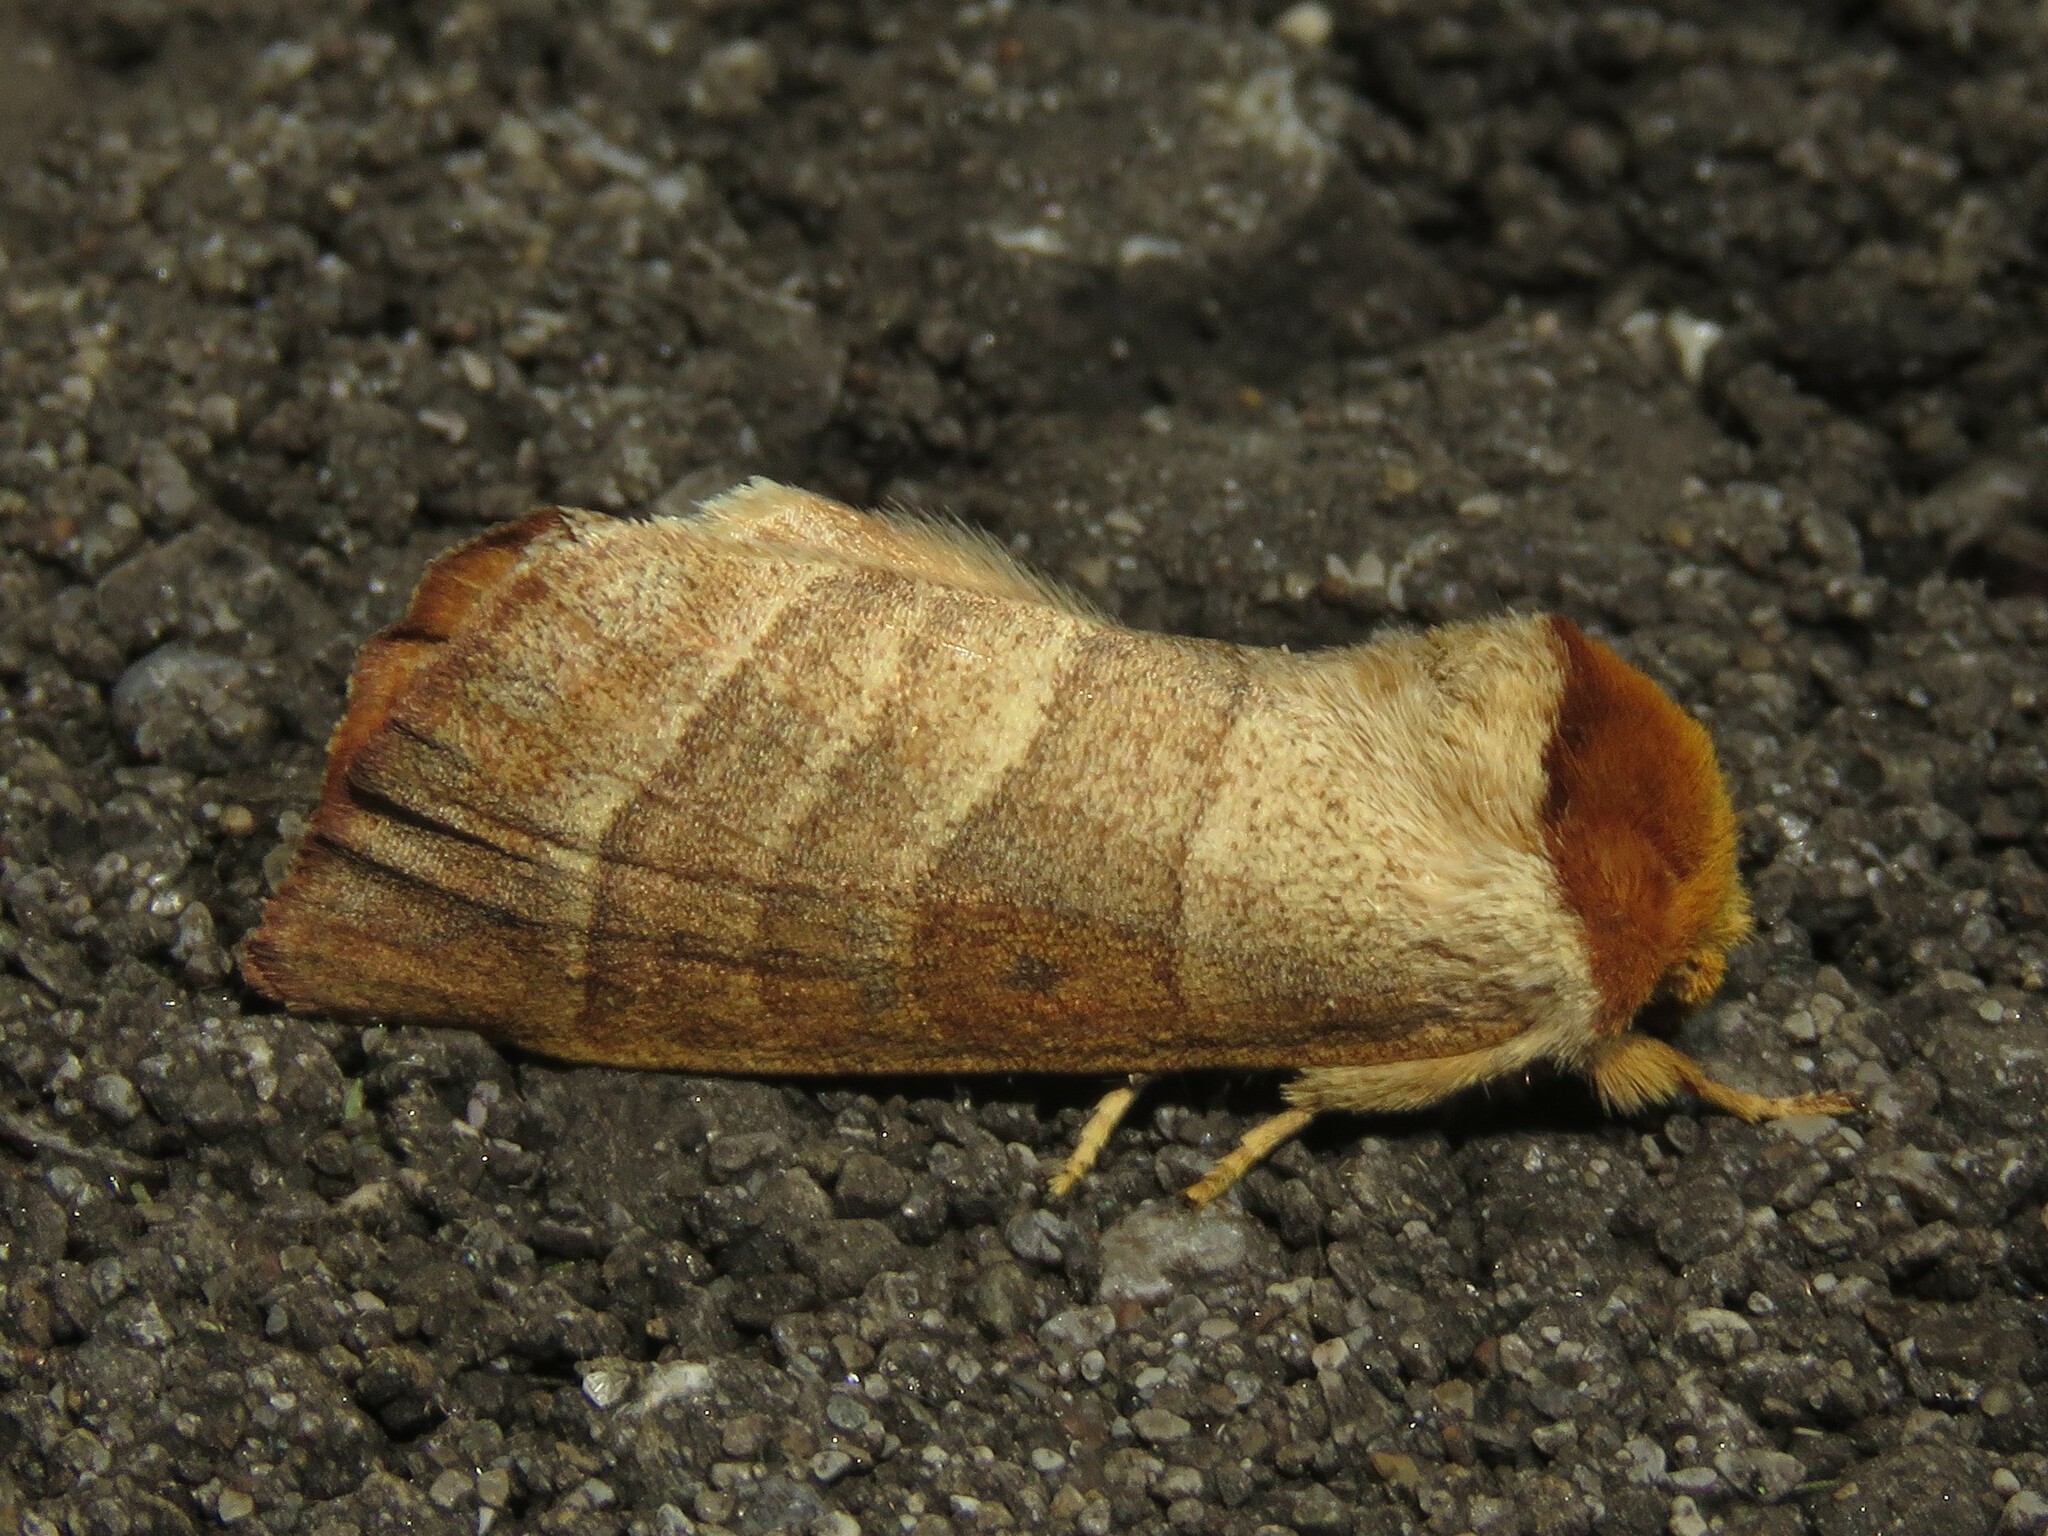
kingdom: Animalia
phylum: Arthropoda
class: Insecta
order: Lepidoptera
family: Notodontidae
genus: Datana
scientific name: Datana integerrima
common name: Walnut caterpillar
